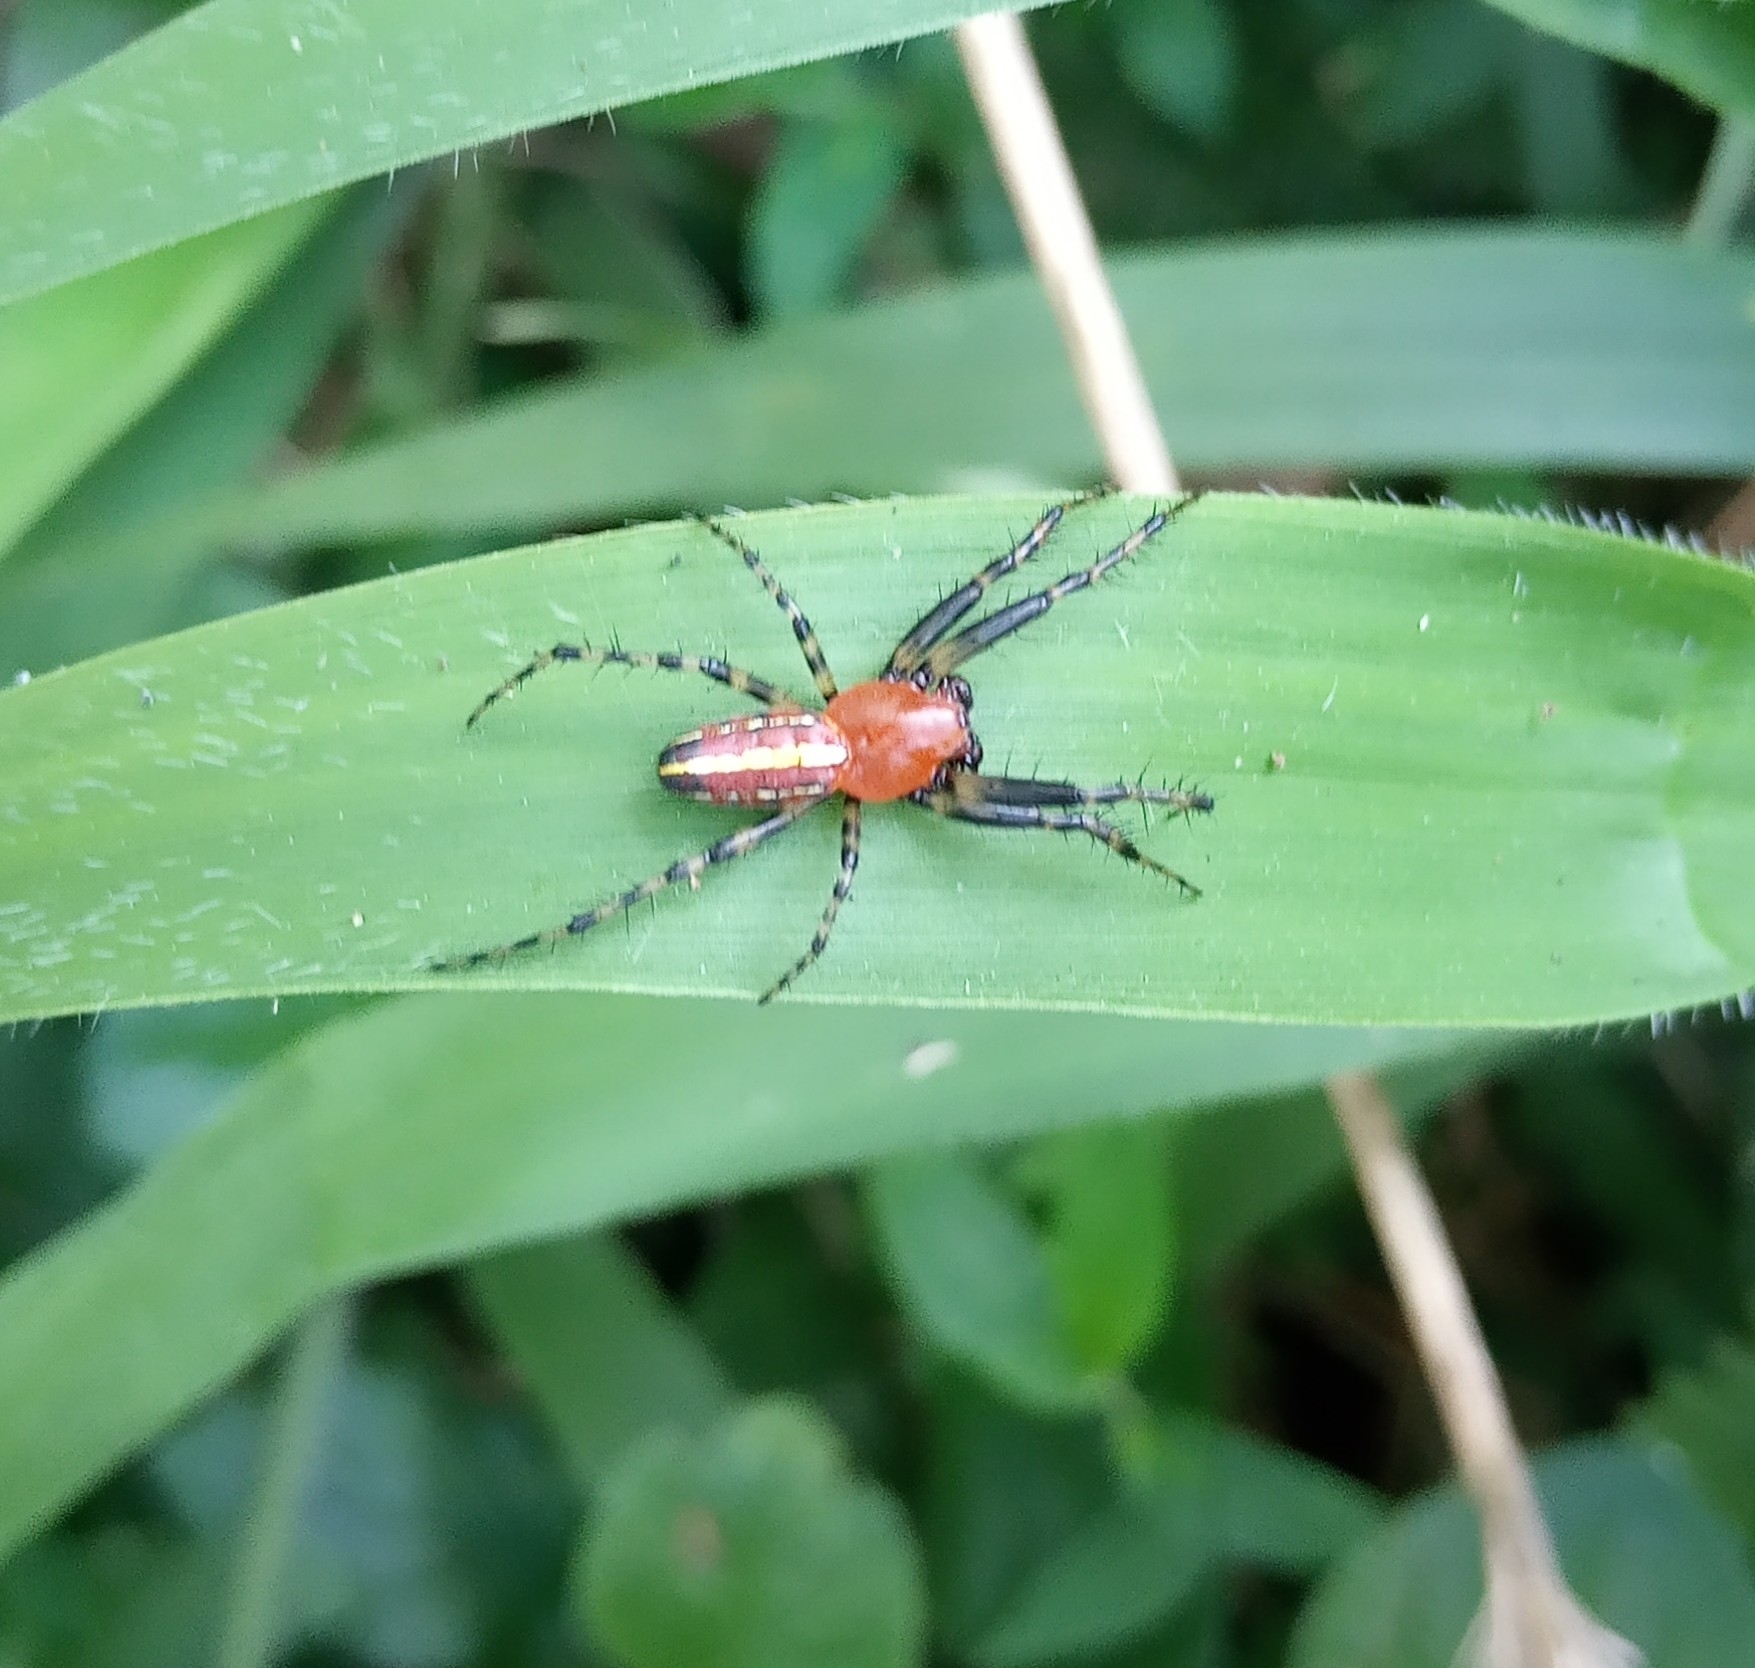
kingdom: Animalia
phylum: Arthropoda
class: Arachnida
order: Araneae
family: Araneidae
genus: Alpaida
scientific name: Alpaida grayi
